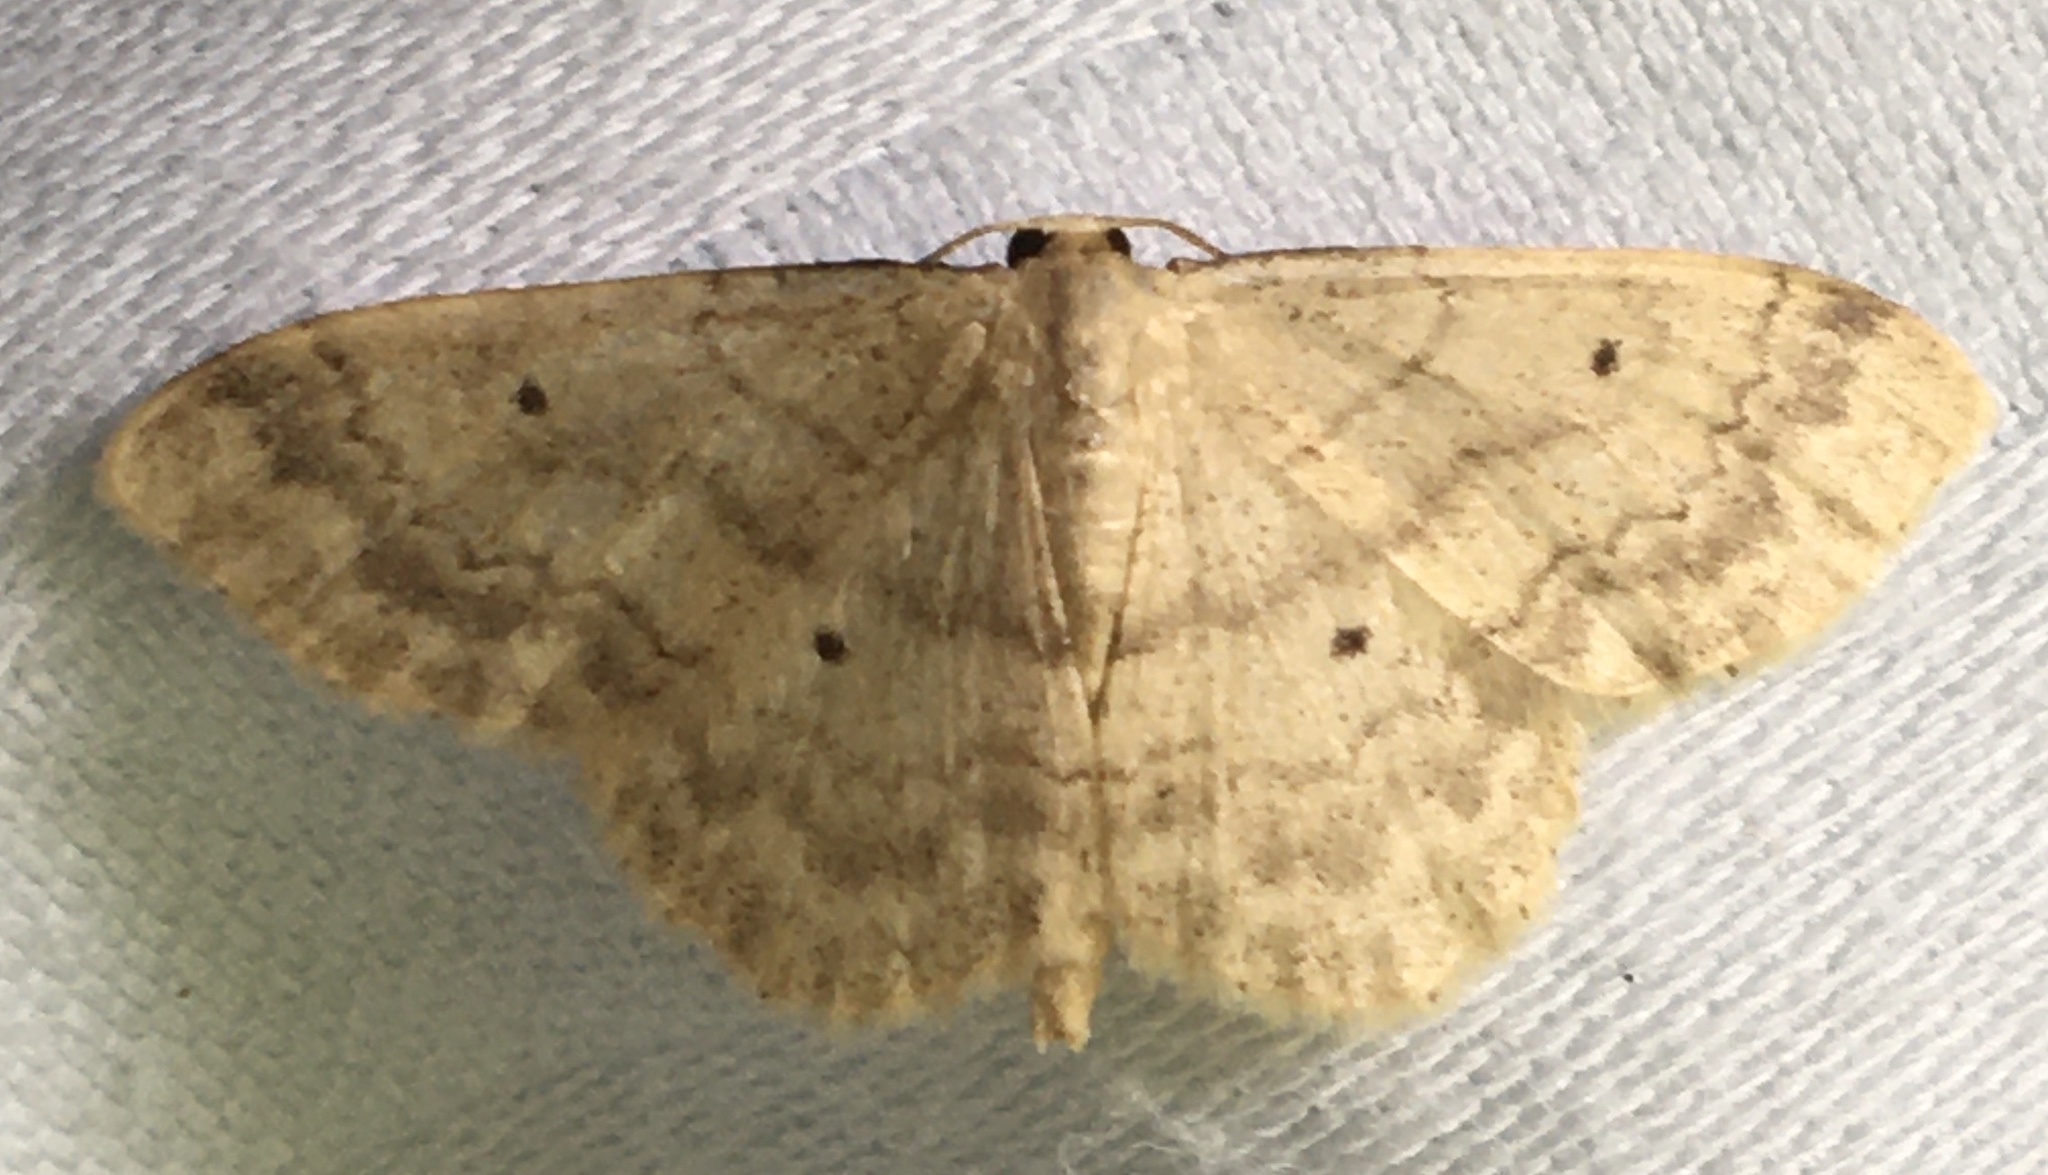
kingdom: Animalia
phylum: Arthropoda
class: Insecta
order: Lepidoptera
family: Geometridae
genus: Idaea
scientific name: Idaea biselata
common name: Small fan-footed wave
